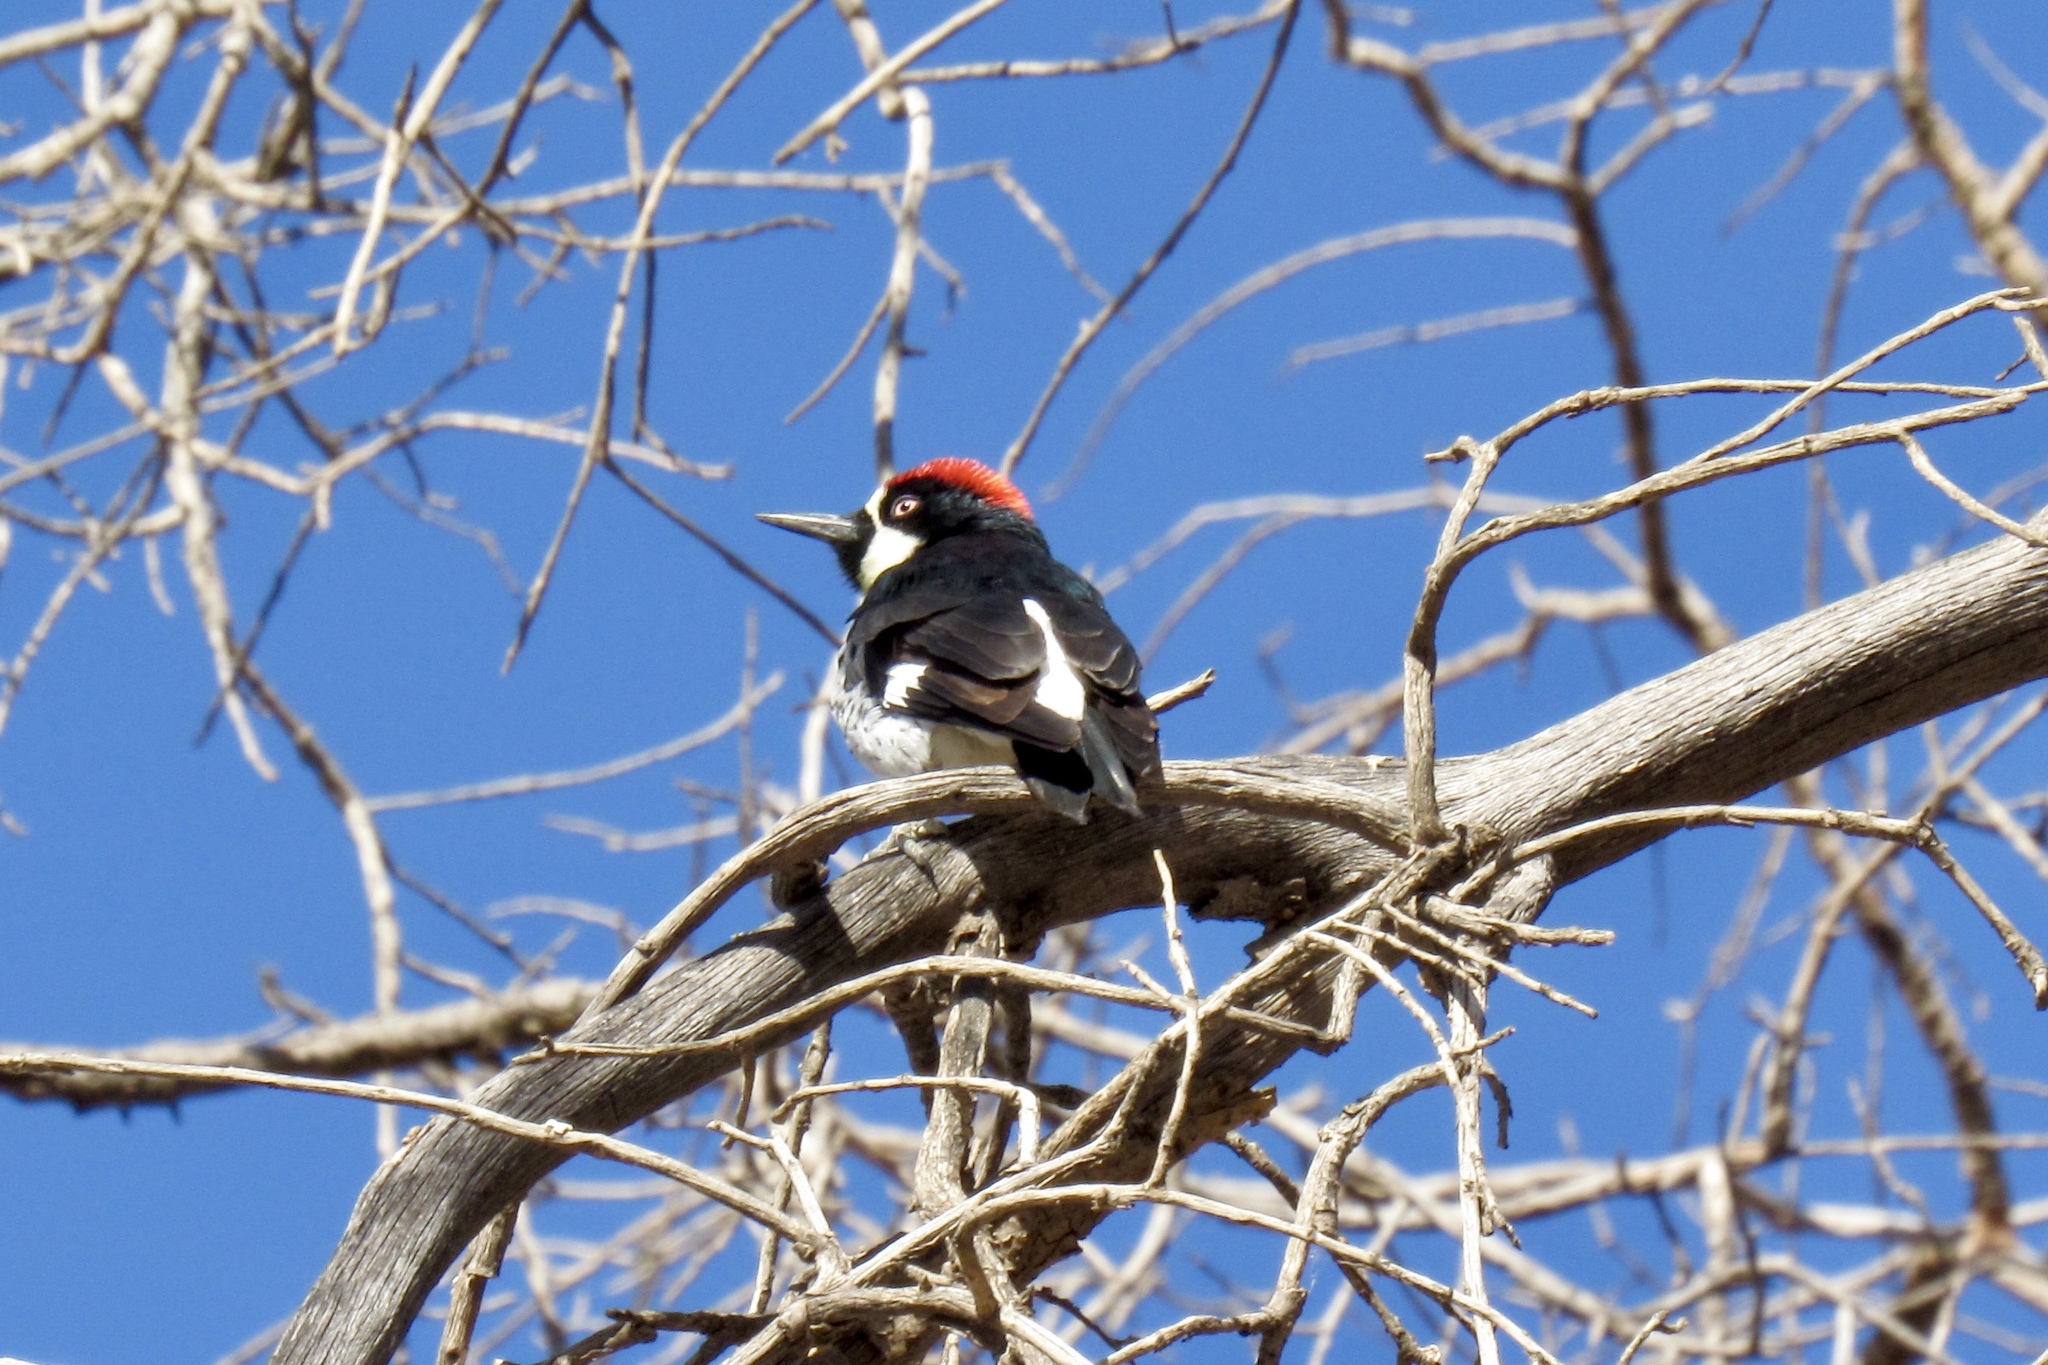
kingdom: Animalia
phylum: Chordata
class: Aves
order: Piciformes
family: Picidae
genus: Melanerpes
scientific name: Melanerpes formicivorus
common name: Acorn woodpecker
